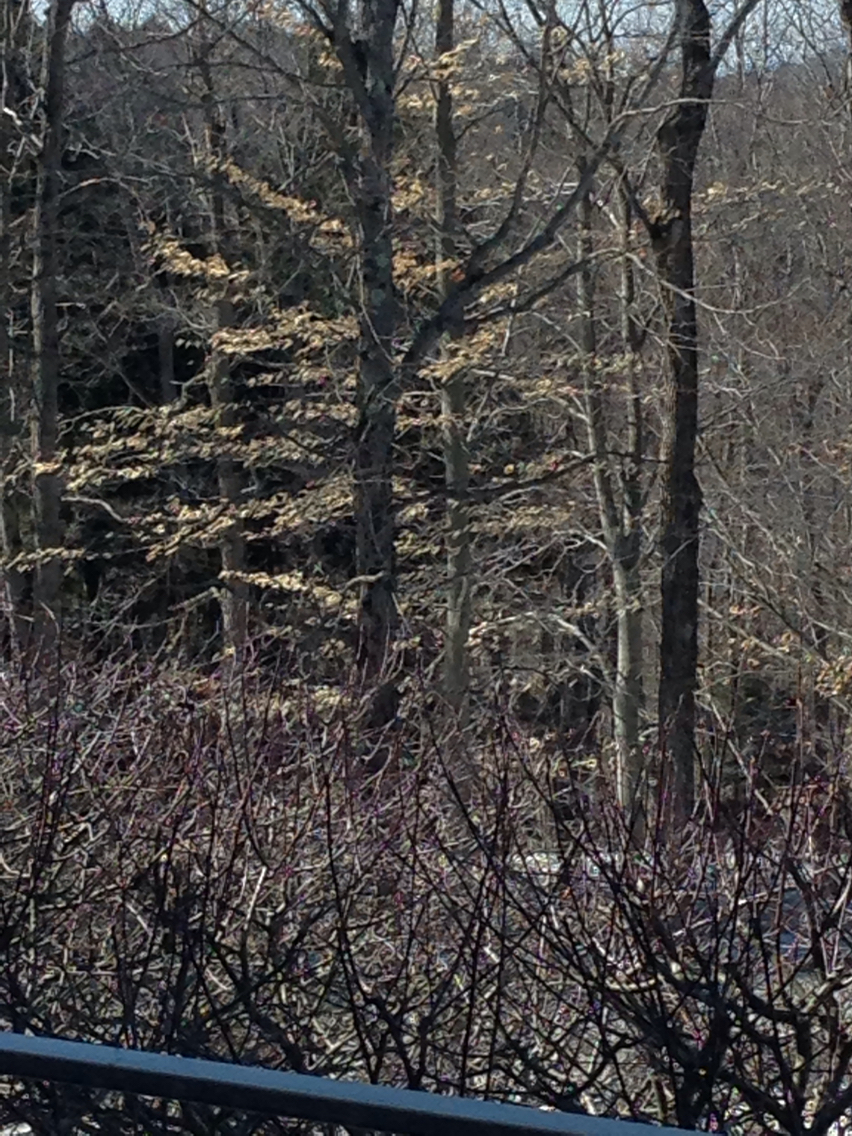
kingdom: Plantae
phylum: Tracheophyta
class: Magnoliopsida
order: Fagales
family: Fagaceae
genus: Fagus
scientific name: Fagus grandifolia
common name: American beech
